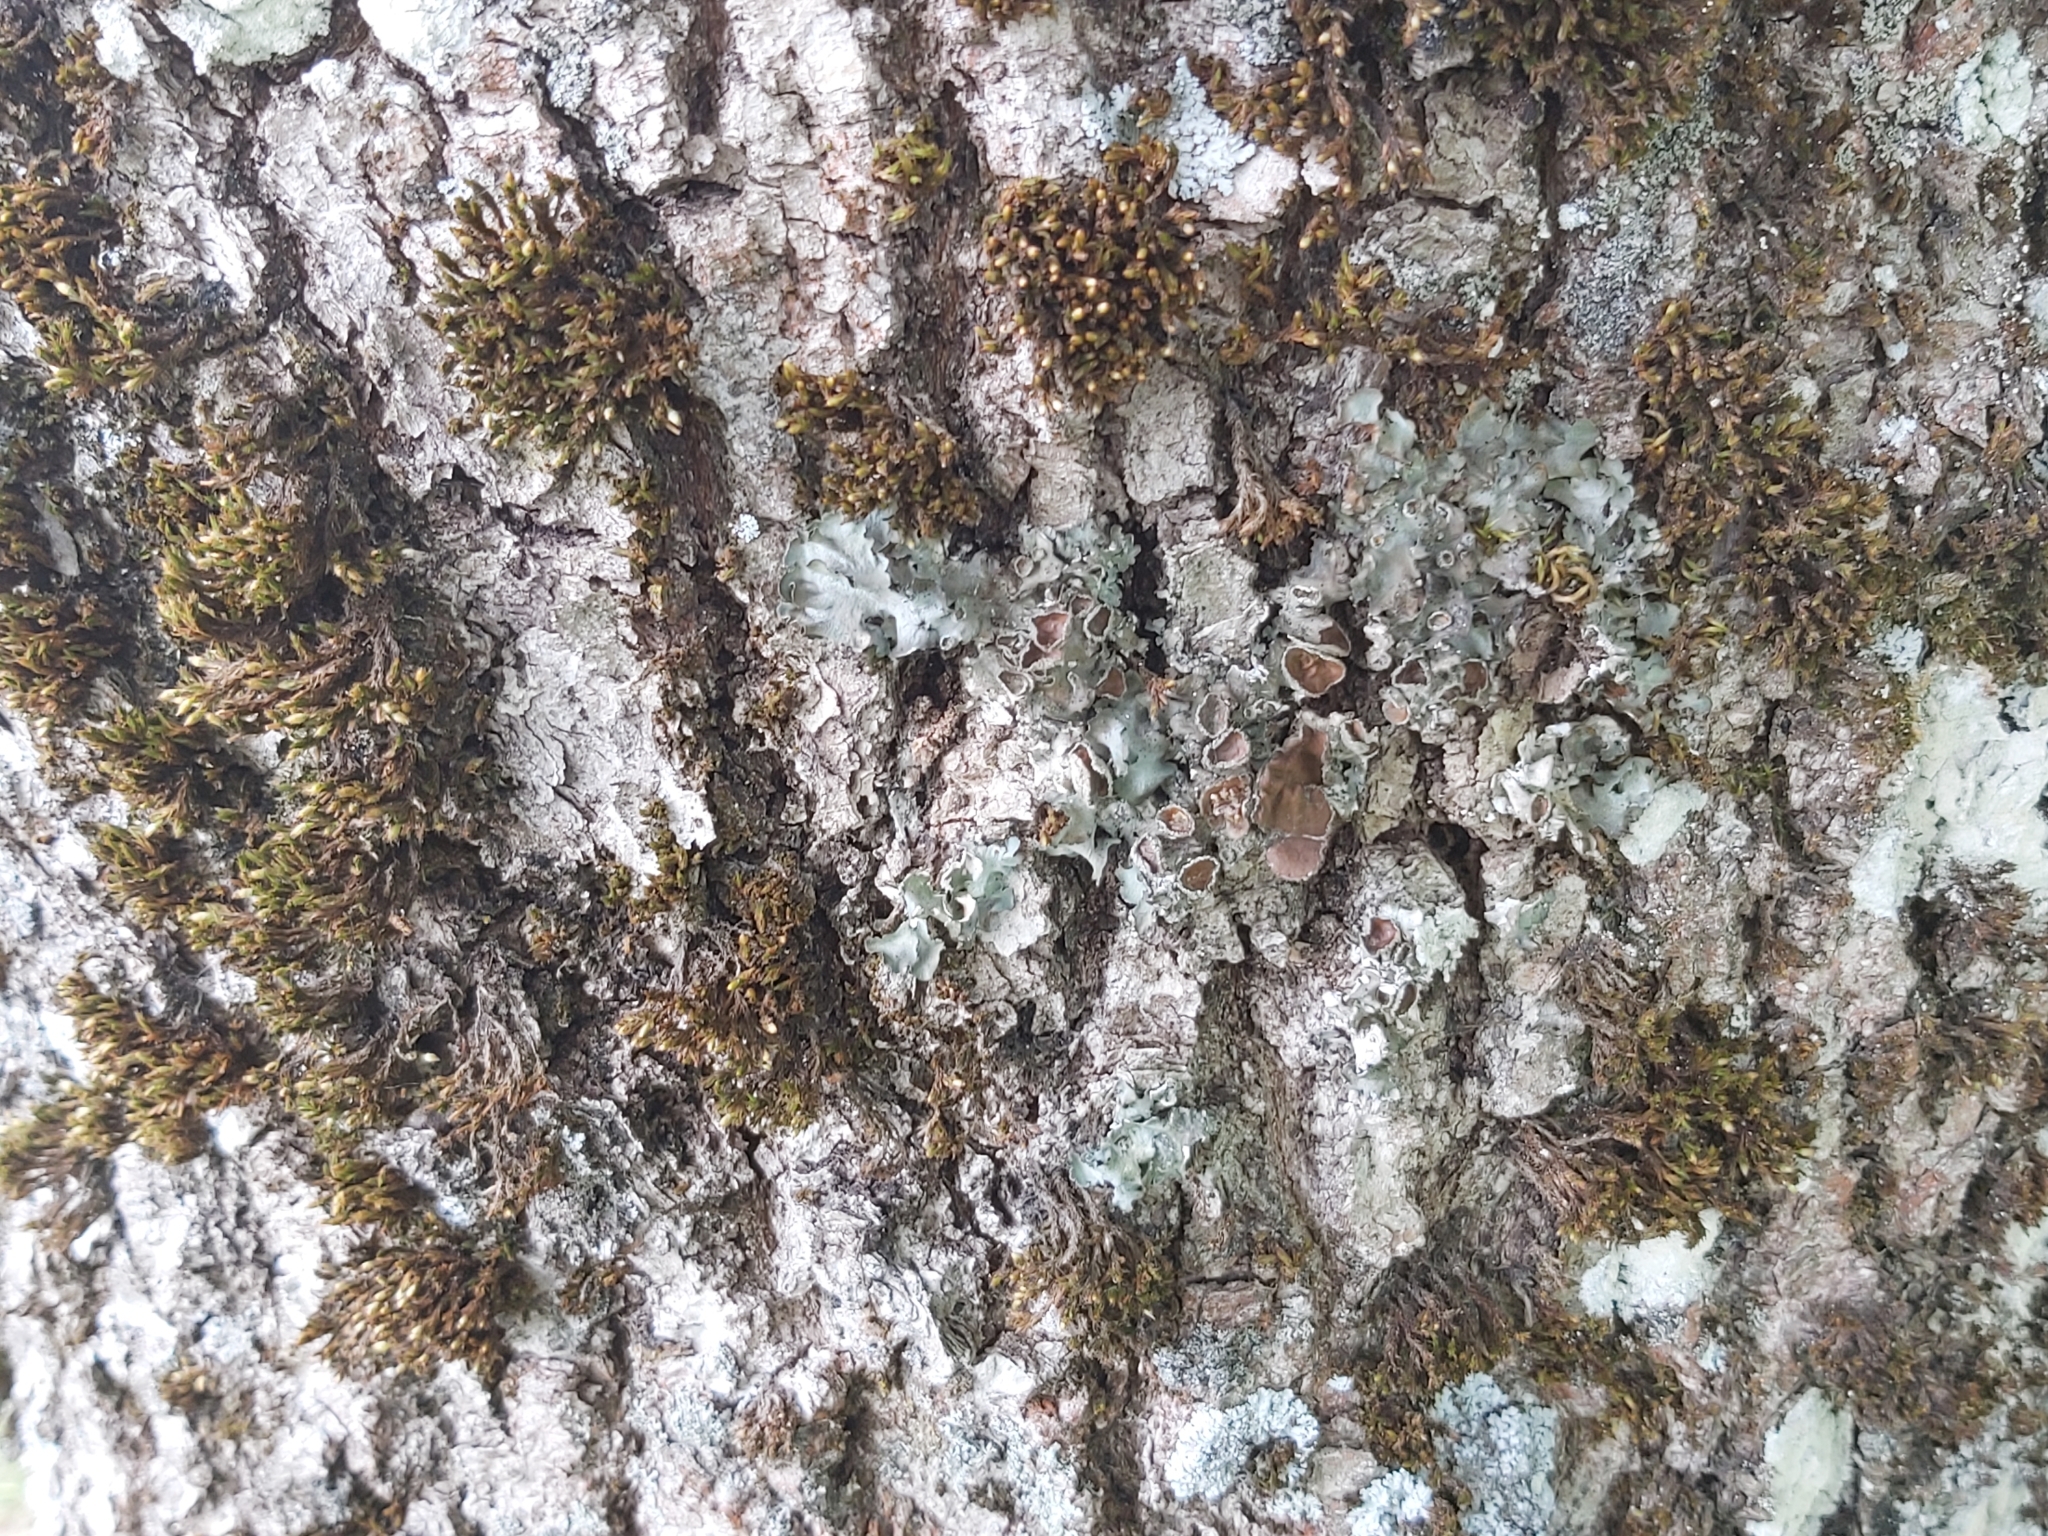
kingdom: Fungi
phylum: Ascomycota
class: Lecanoromycetes
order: Lecanorales
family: Parmeliaceae
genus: Pleurosticta
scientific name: Pleurosticta acetabulum
